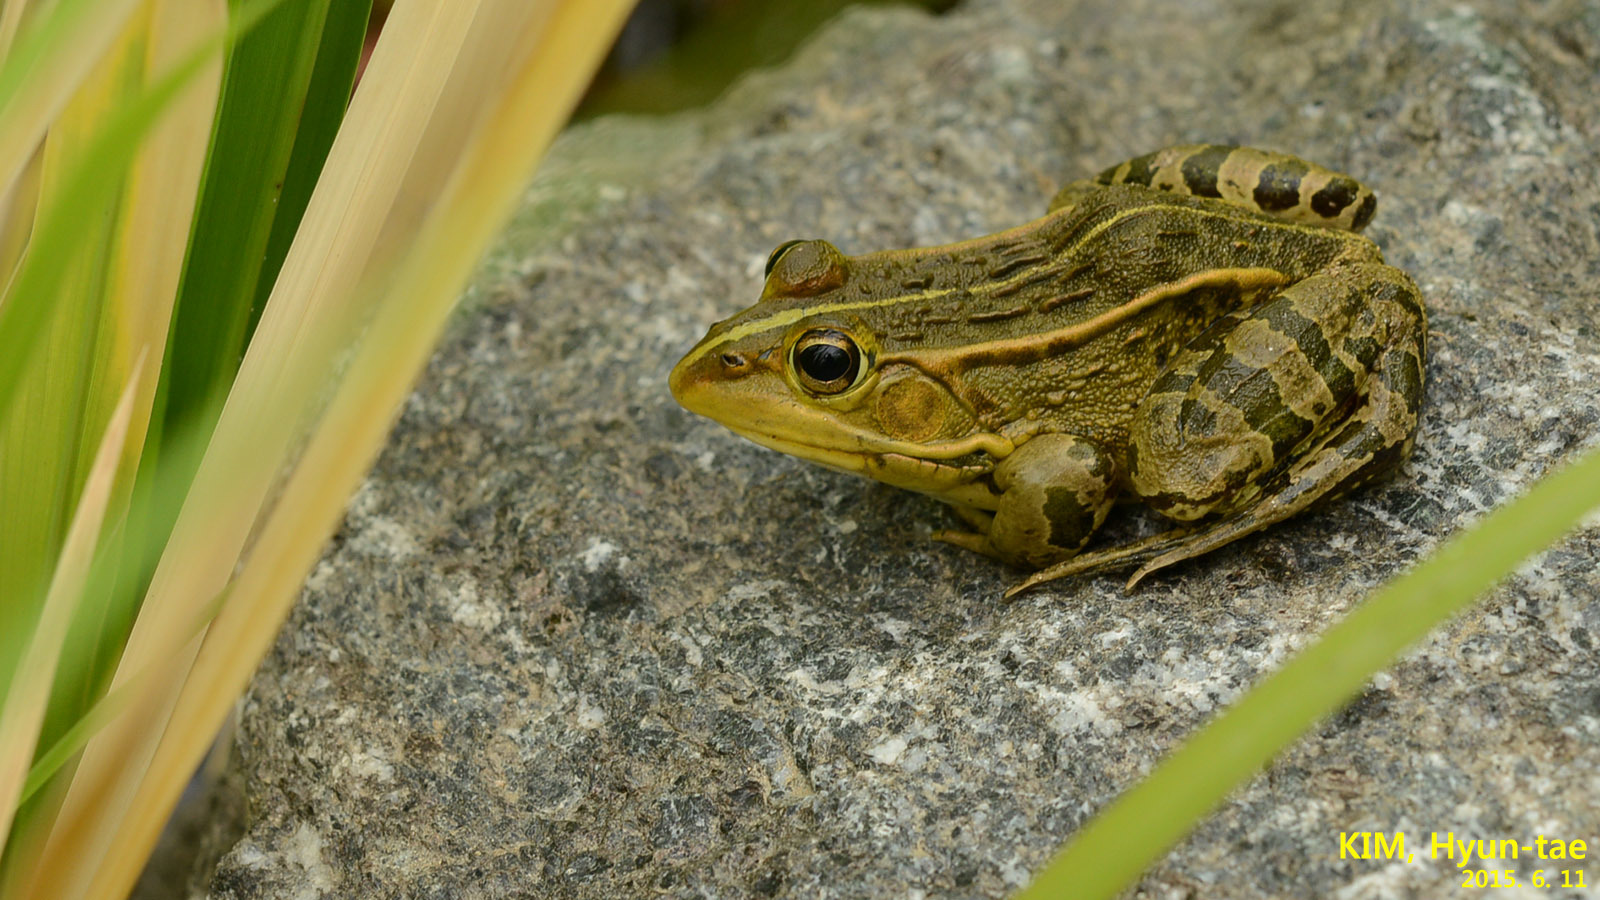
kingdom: Animalia
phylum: Chordata
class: Amphibia
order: Anura
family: Ranidae
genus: Pelophylax
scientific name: Pelophylax nigromaculatus
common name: Black-spotted pond frog
